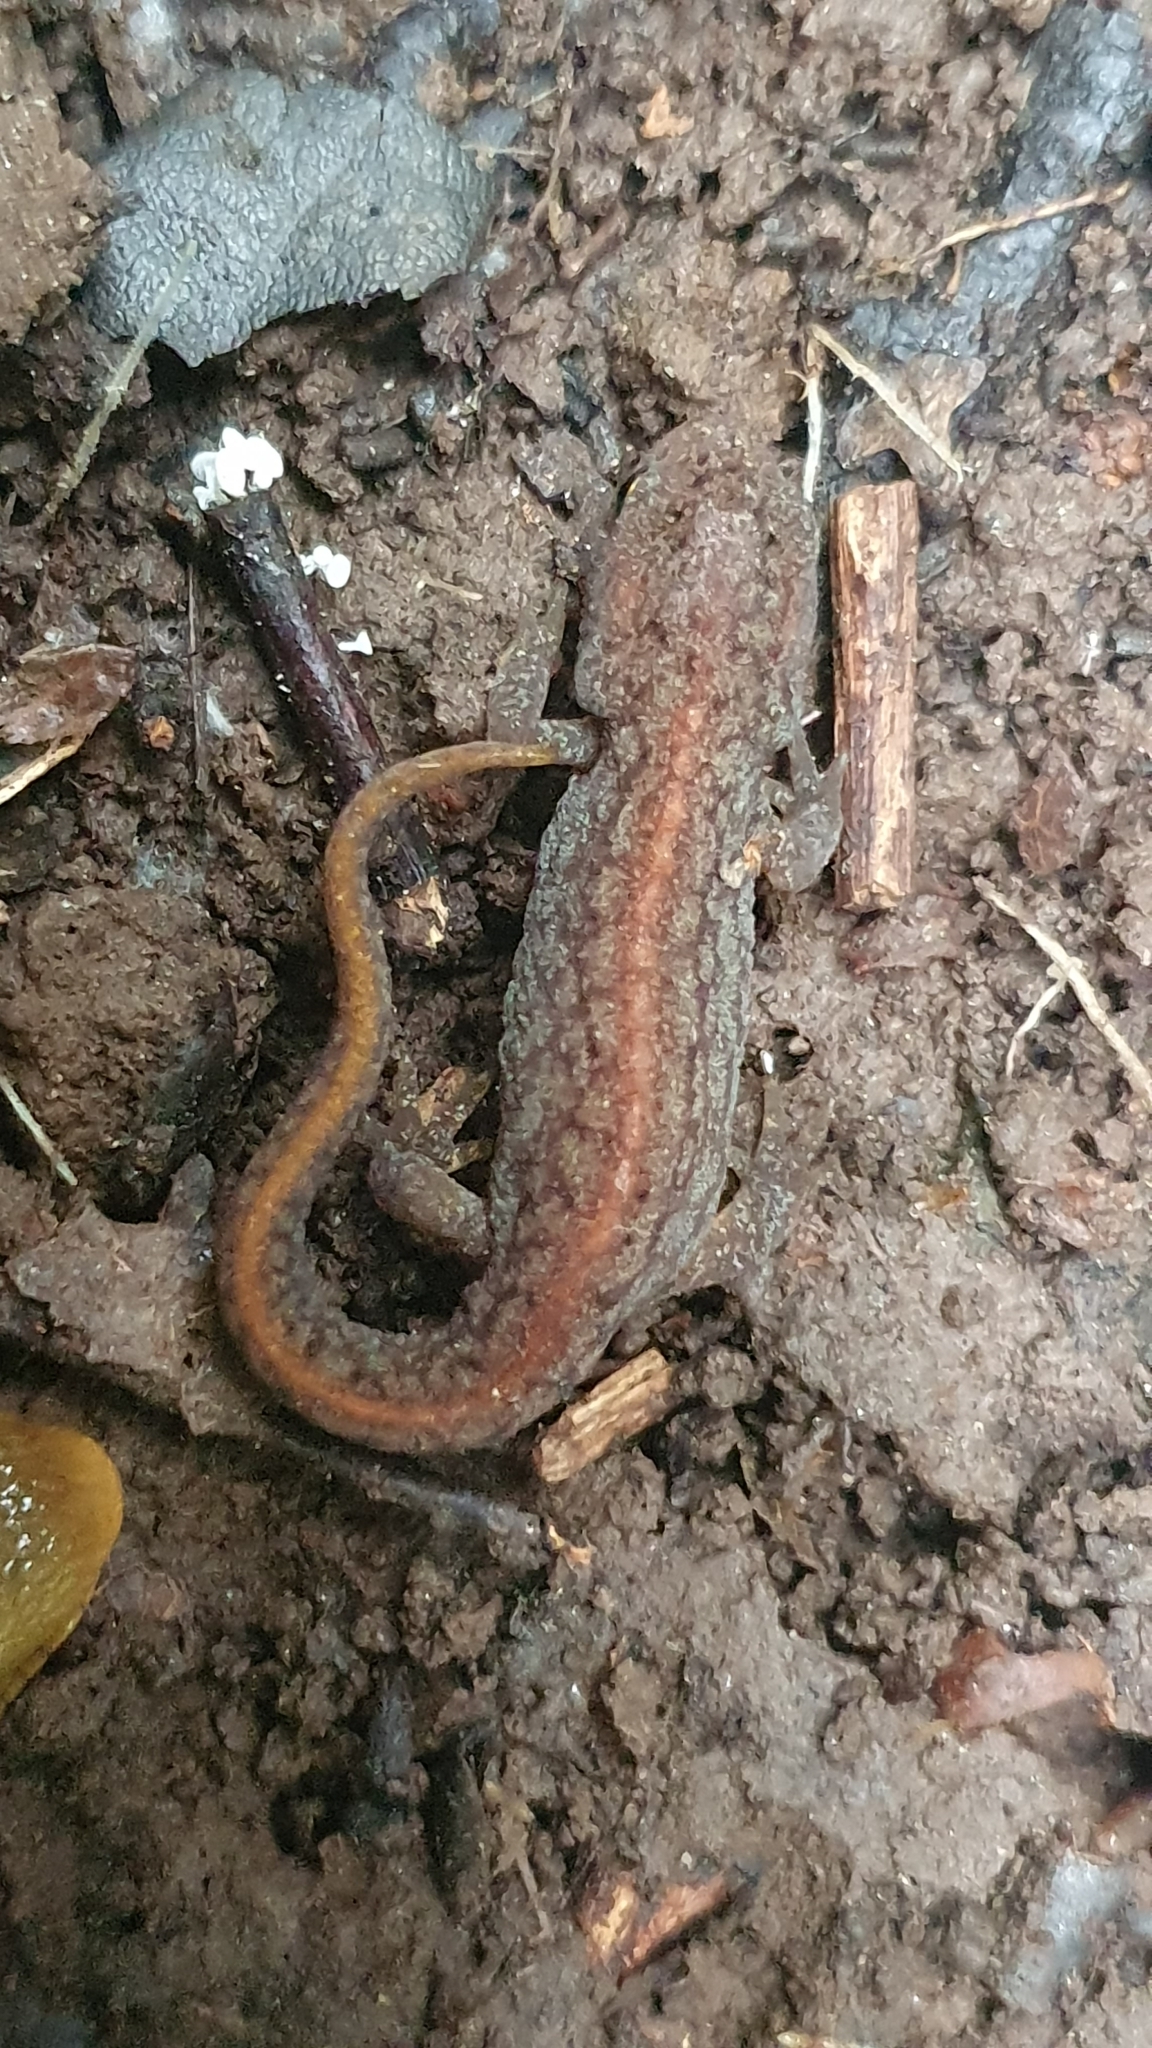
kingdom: Animalia
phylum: Chordata
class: Amphibia
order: Caudata
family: Salamandridae
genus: Lissotriton
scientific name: Lissotriton boscai
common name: Bosca's newt
